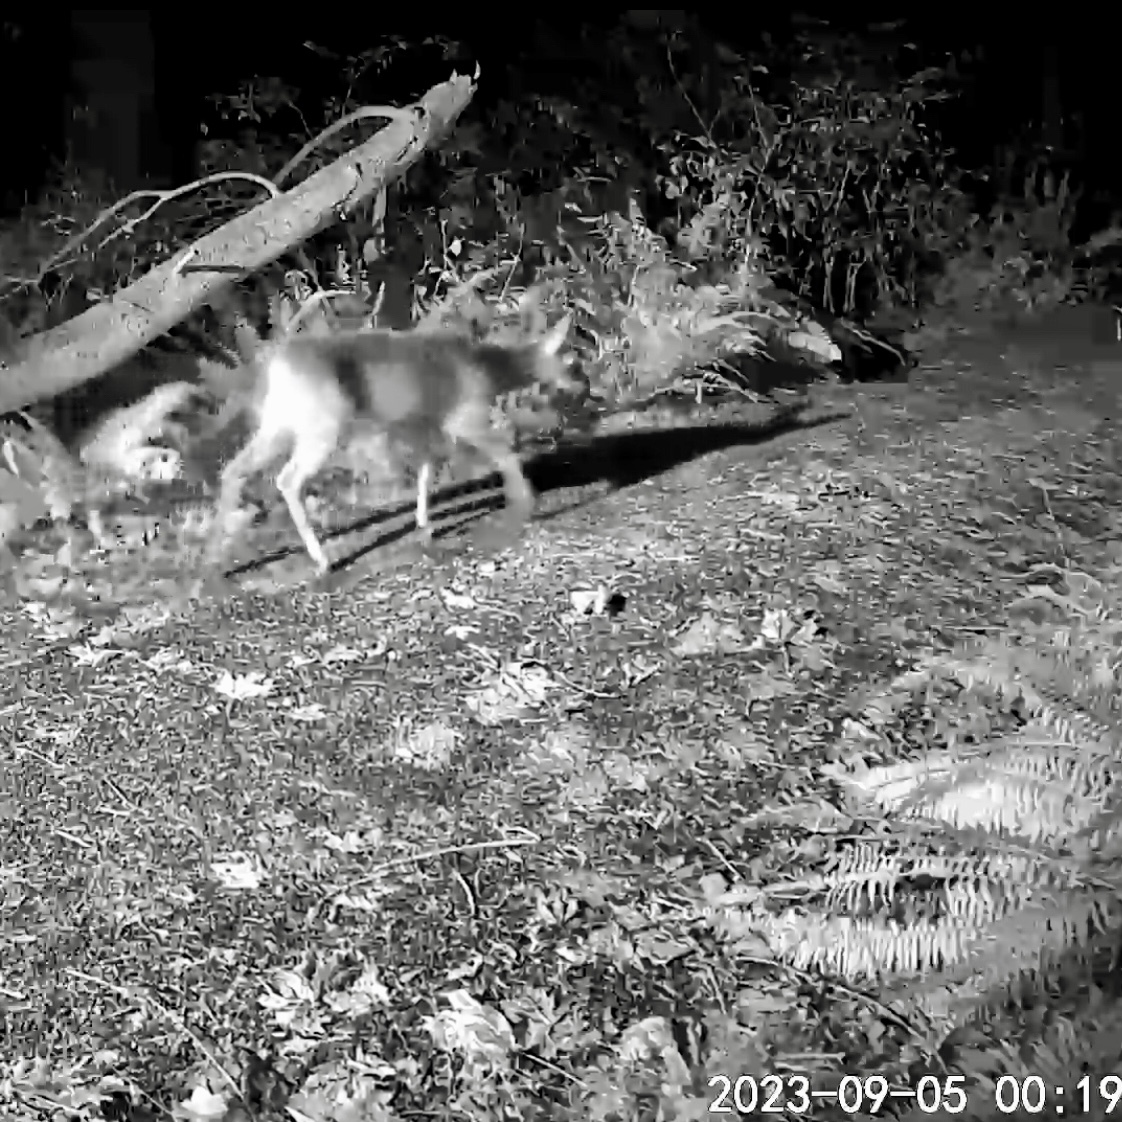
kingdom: Animalia
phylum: Chordata
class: Mammalia
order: Artiodactyla
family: Cervidae
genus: Odocoileus
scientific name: Odocoileus hemionus
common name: Mule deer
